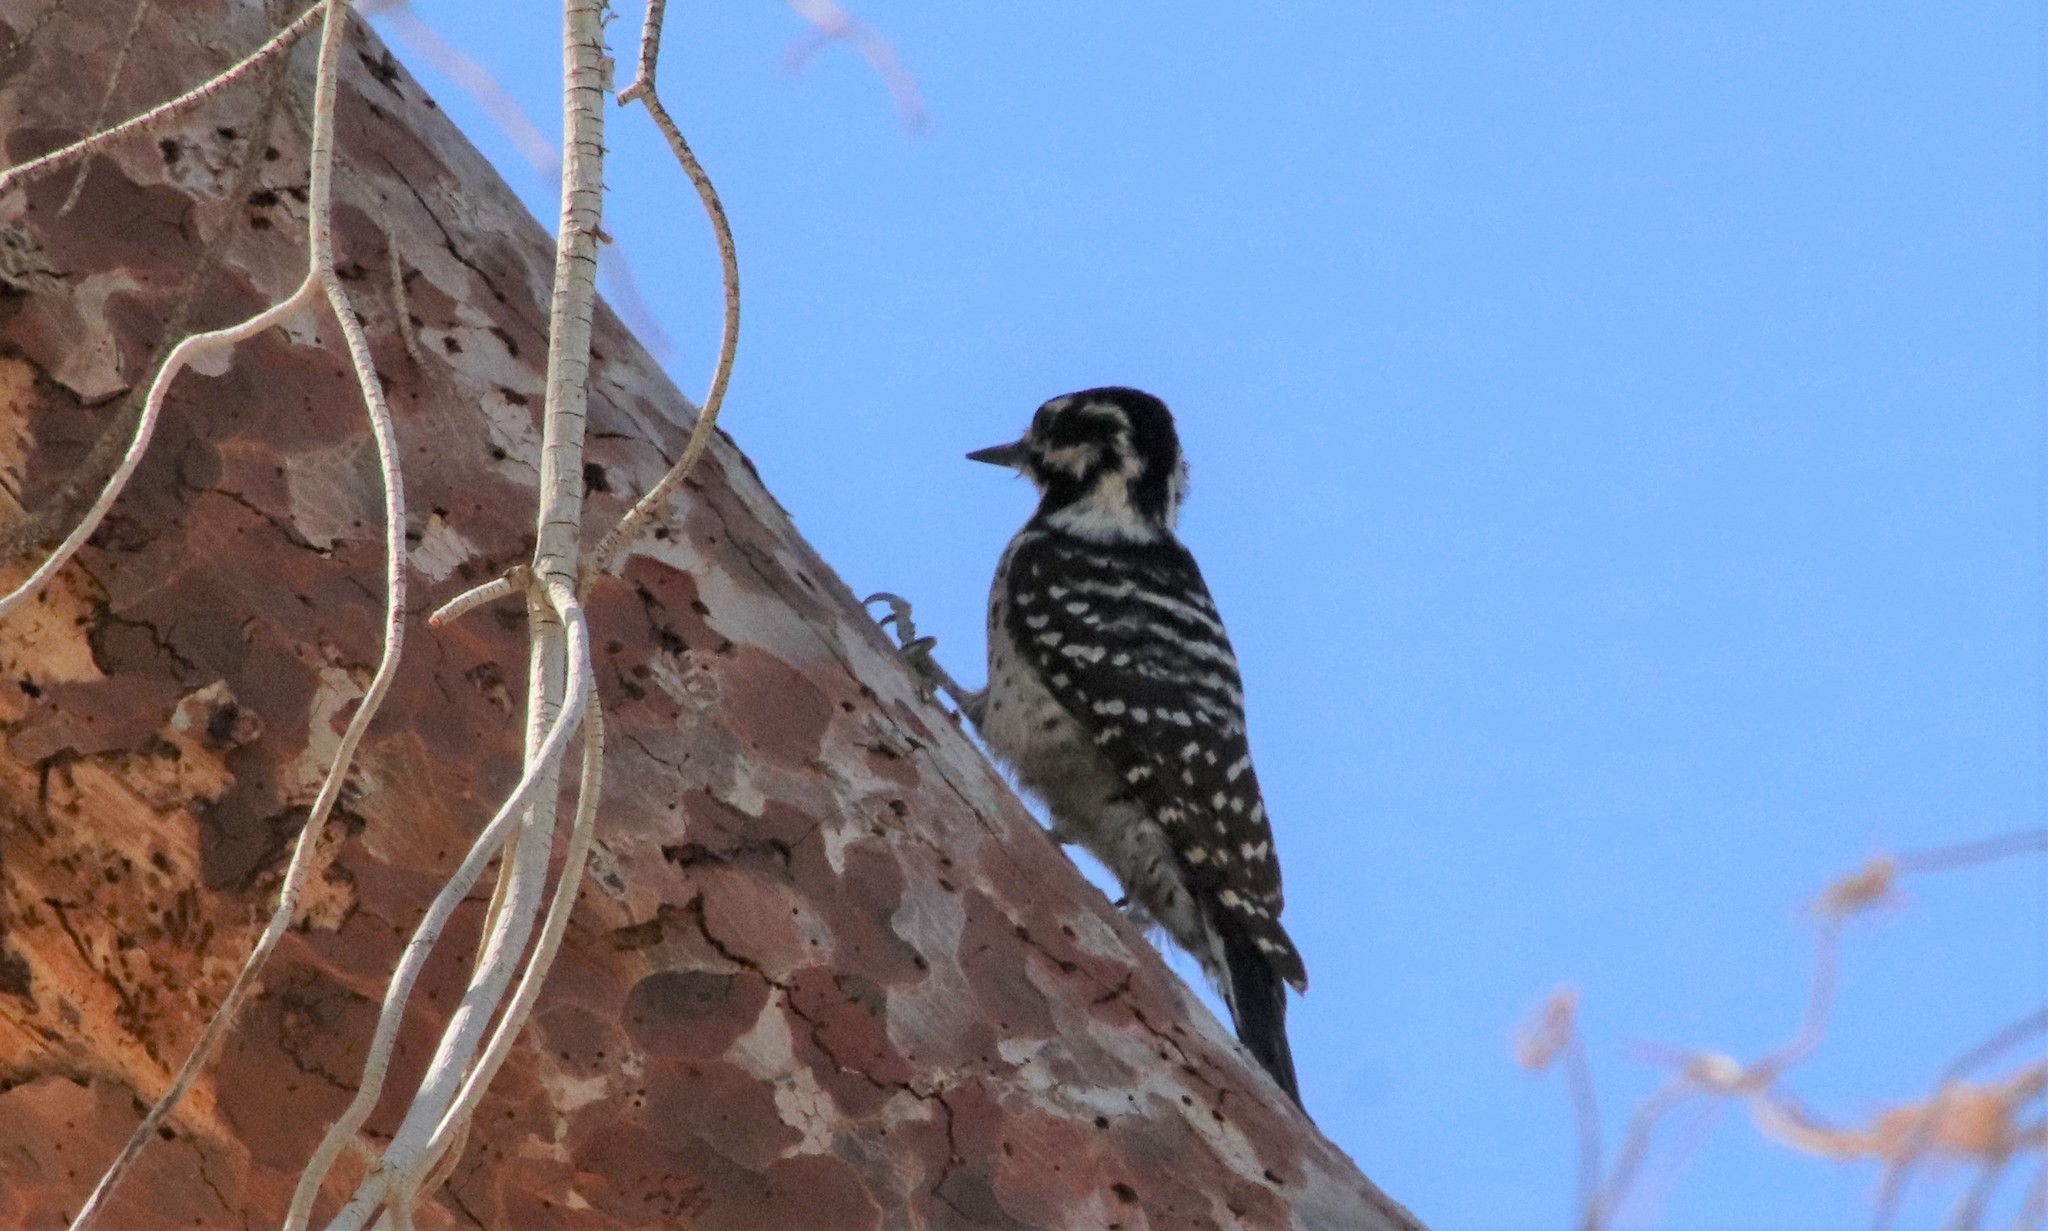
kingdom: Animalia
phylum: Chordata
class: Aves
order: Piciformes
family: Picidae
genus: Dryobates
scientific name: Dryobates nuttallii
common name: Nuttall's woodpecker
